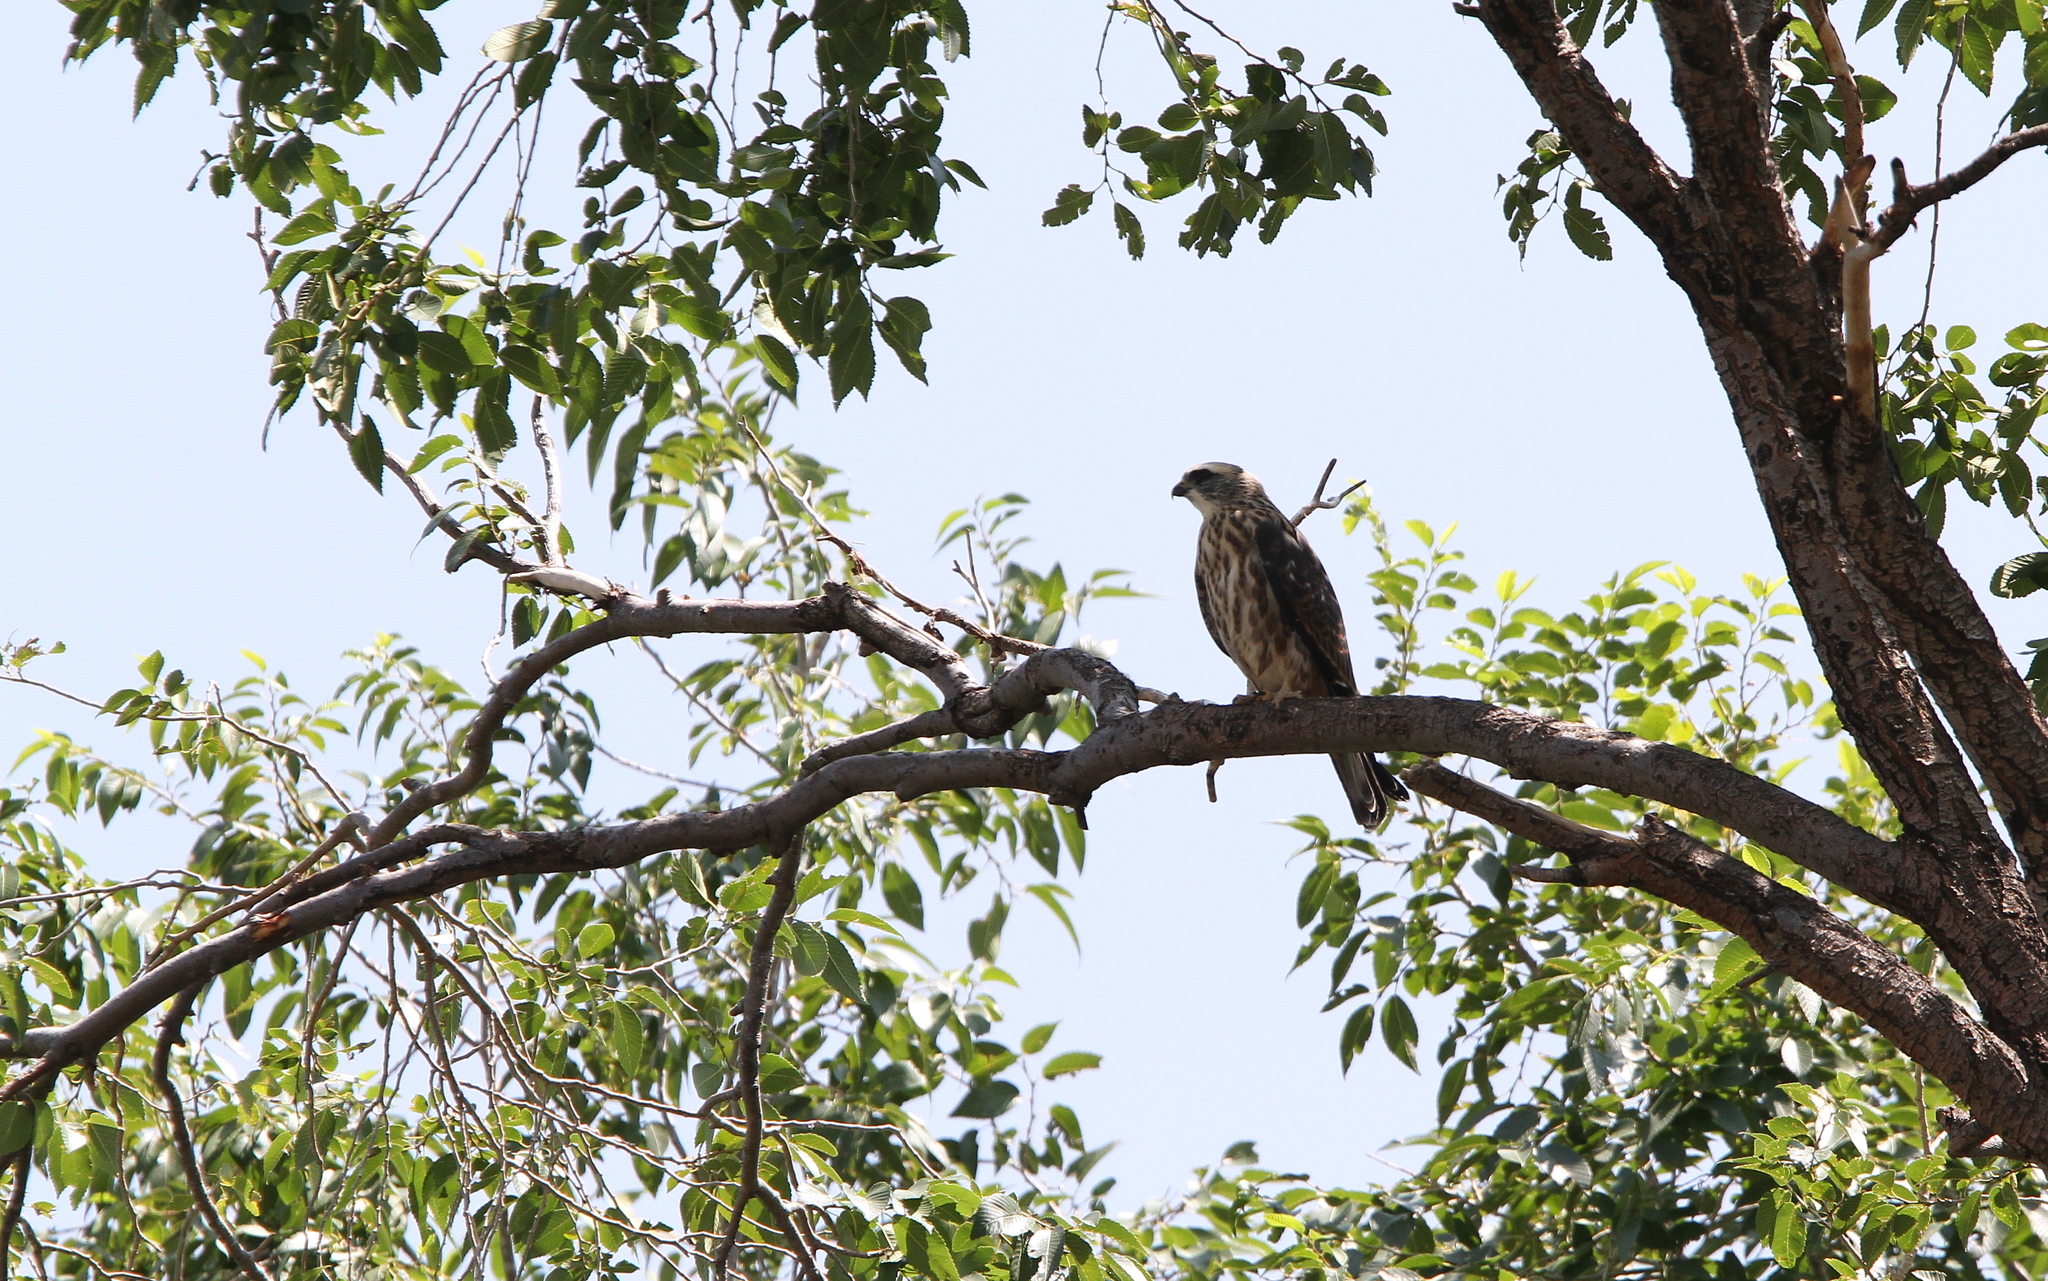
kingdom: Animalia
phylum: Chordata
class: Aves
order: Accipitriformes
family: Accipitridae
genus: Ictinia
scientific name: Ictinia mississippiensis
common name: Mississippi kite
